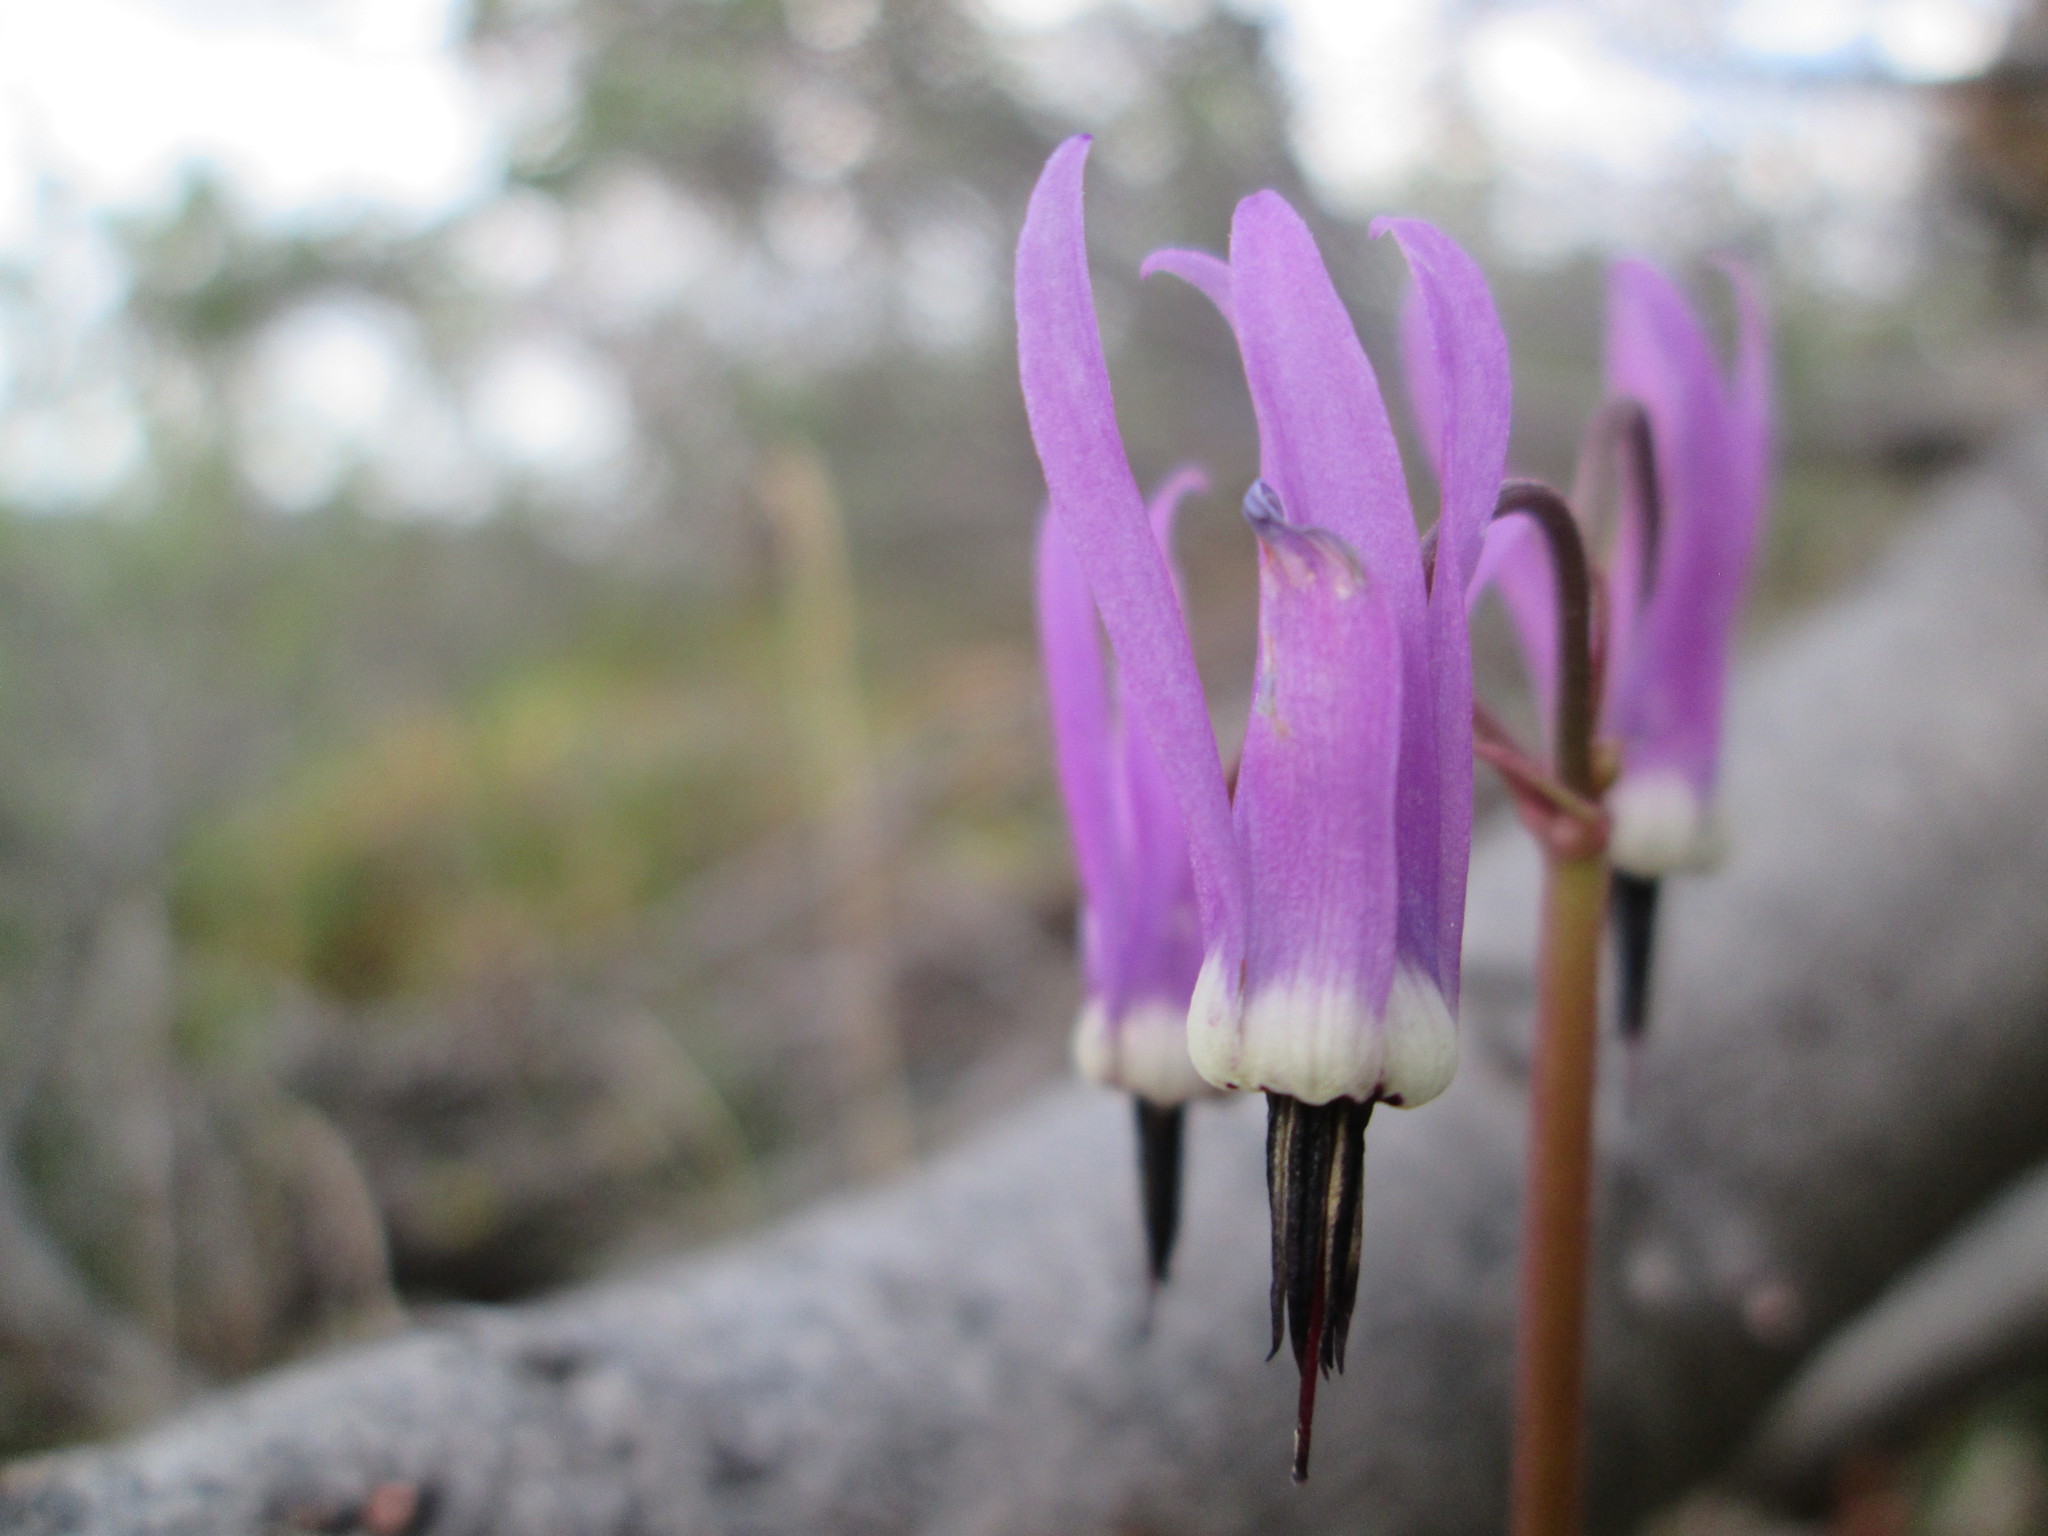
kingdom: Plantae
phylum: Tracheophyta
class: Magnoliopsida
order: Ericales
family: Primulaceae
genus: Dodecatheon
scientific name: Dodecatheon frigidum
